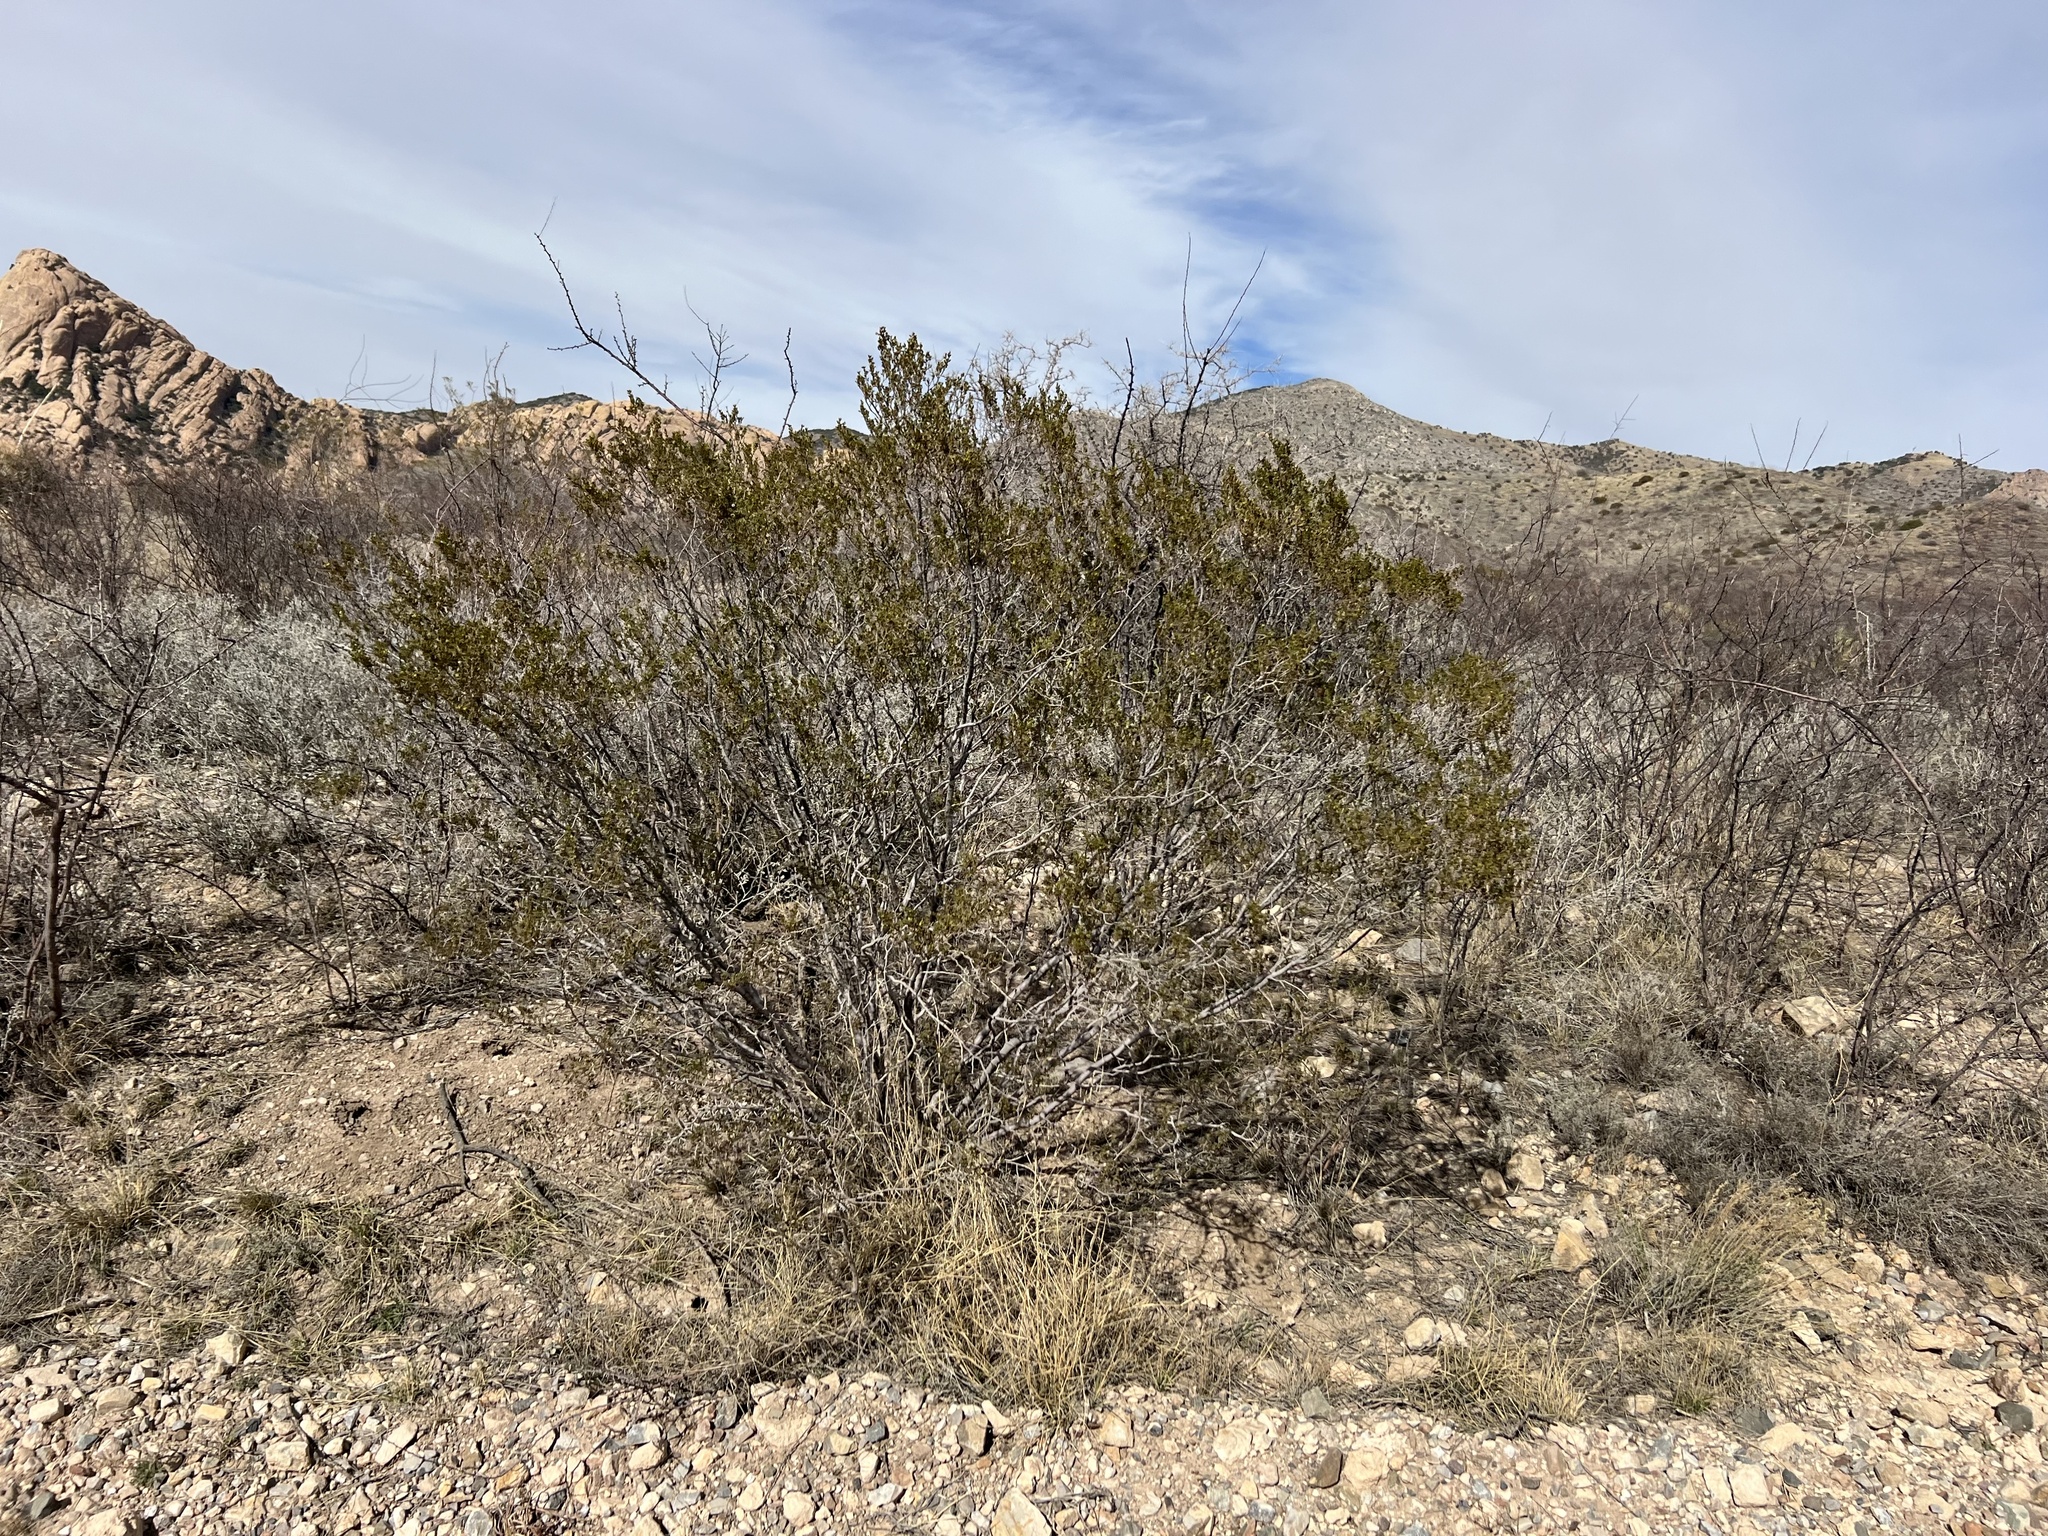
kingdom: Plantae
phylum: Tracheophyta
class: Magnoliopsida
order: Zygophyllales
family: Zygophyllaceae
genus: Larrea
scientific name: Larrea tridentata
